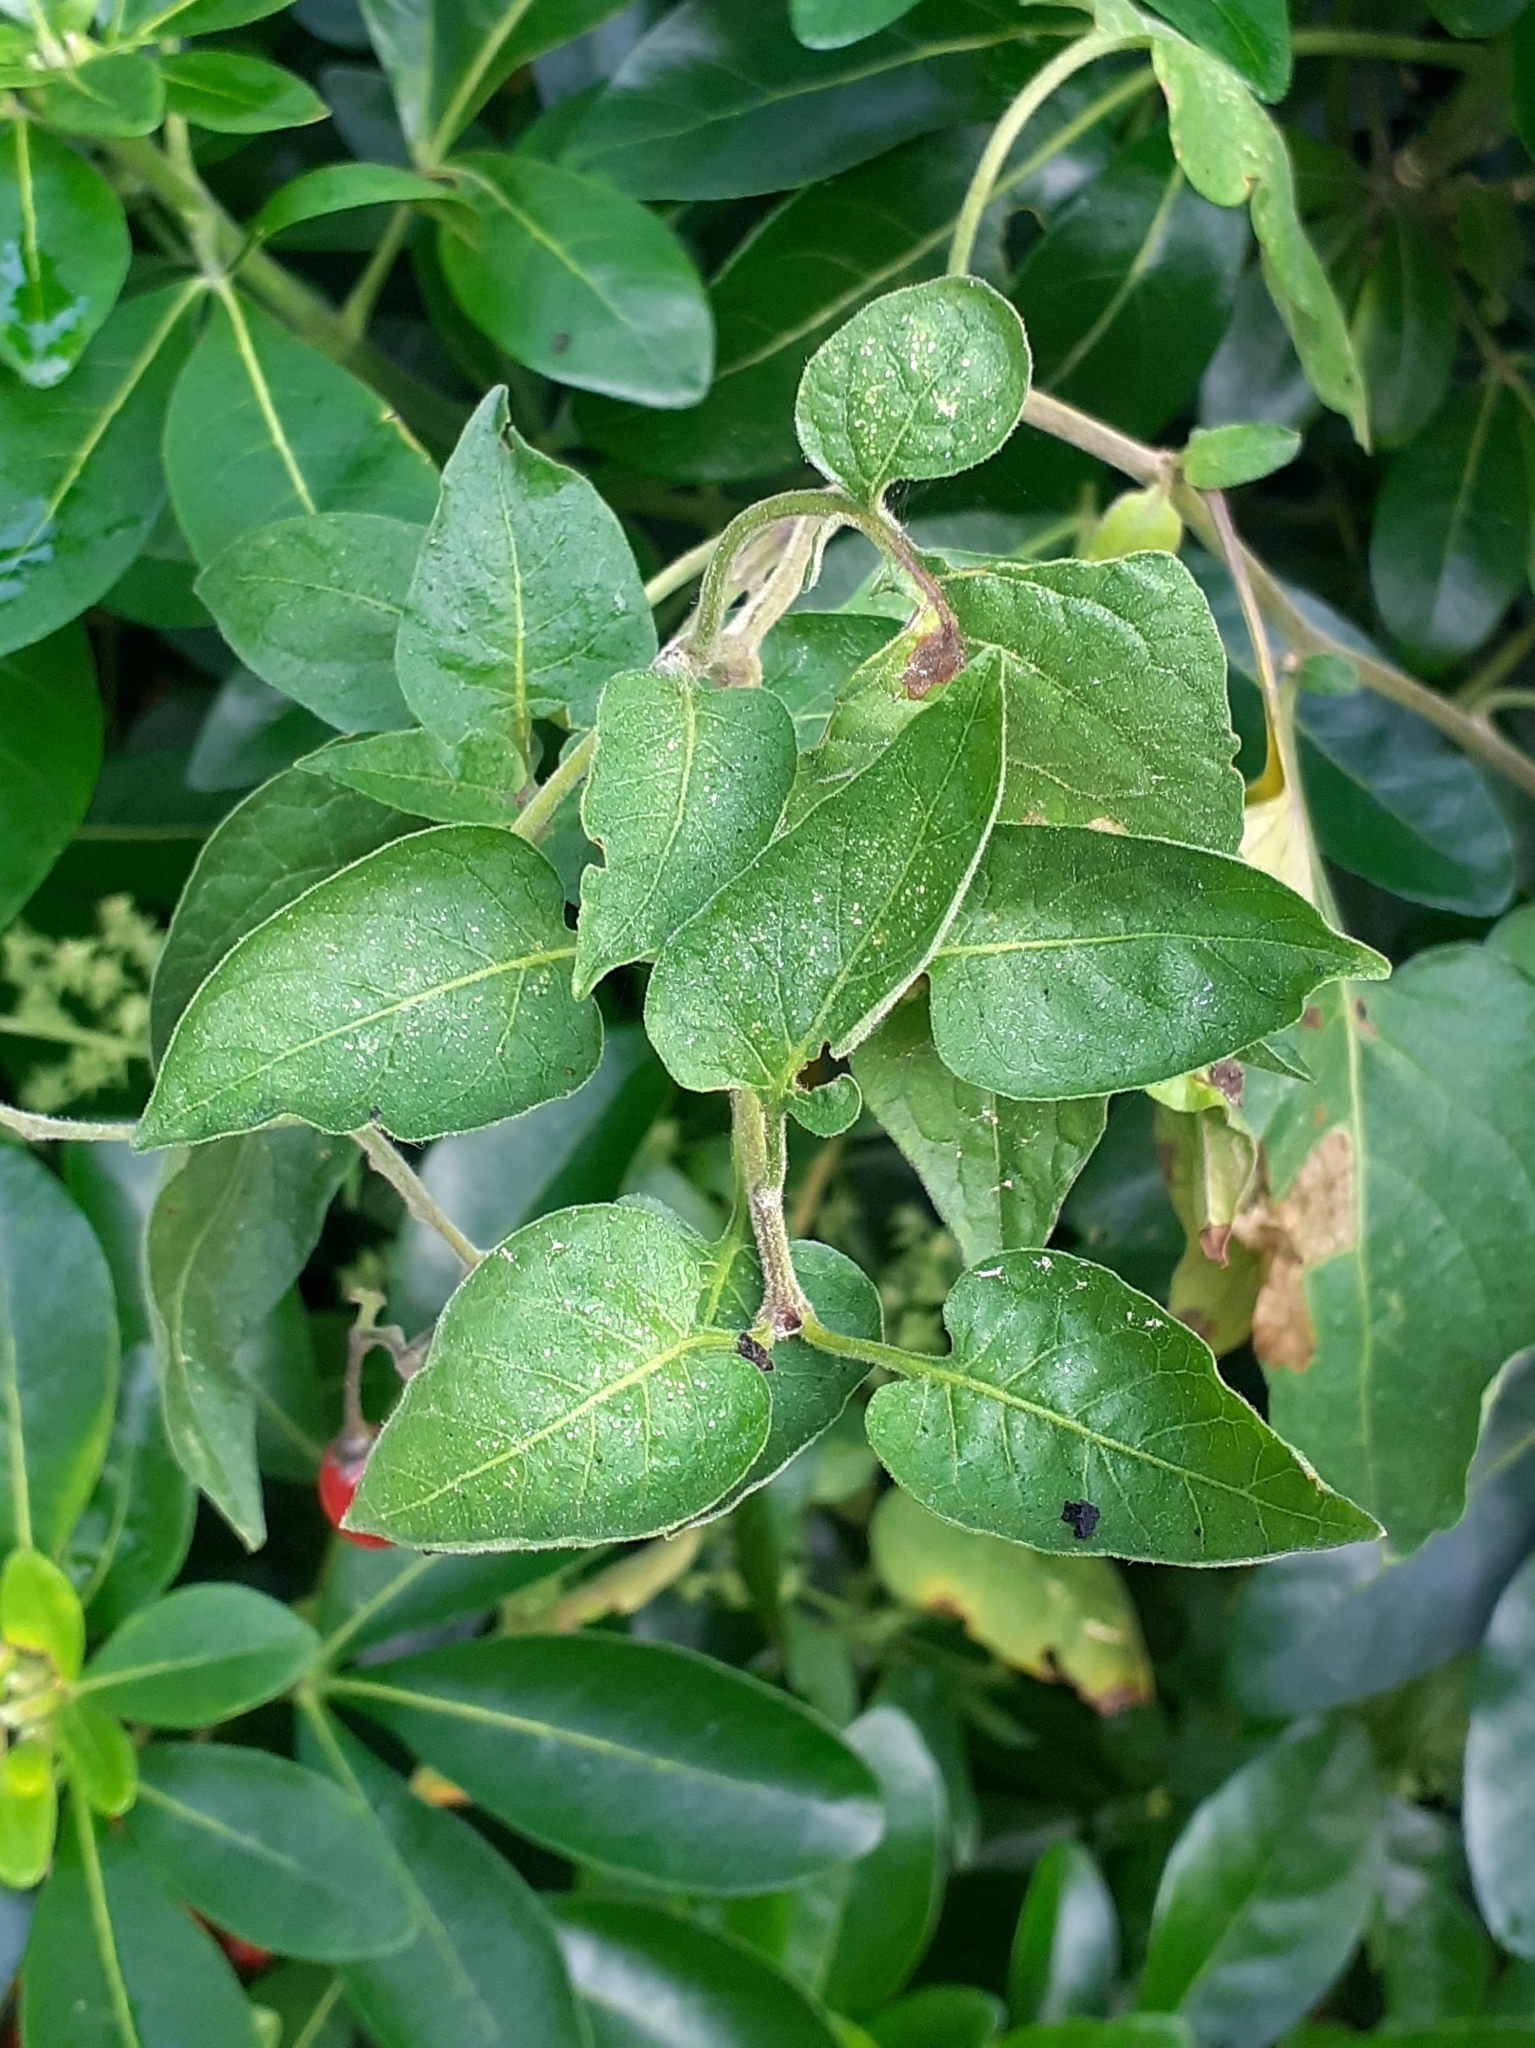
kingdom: Plantae
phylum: Tracheophyta
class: Magnoliopsida
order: Solanales
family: Solanaceae
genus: Solanum
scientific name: Solanum dulcamara
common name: Climbing nightshade
